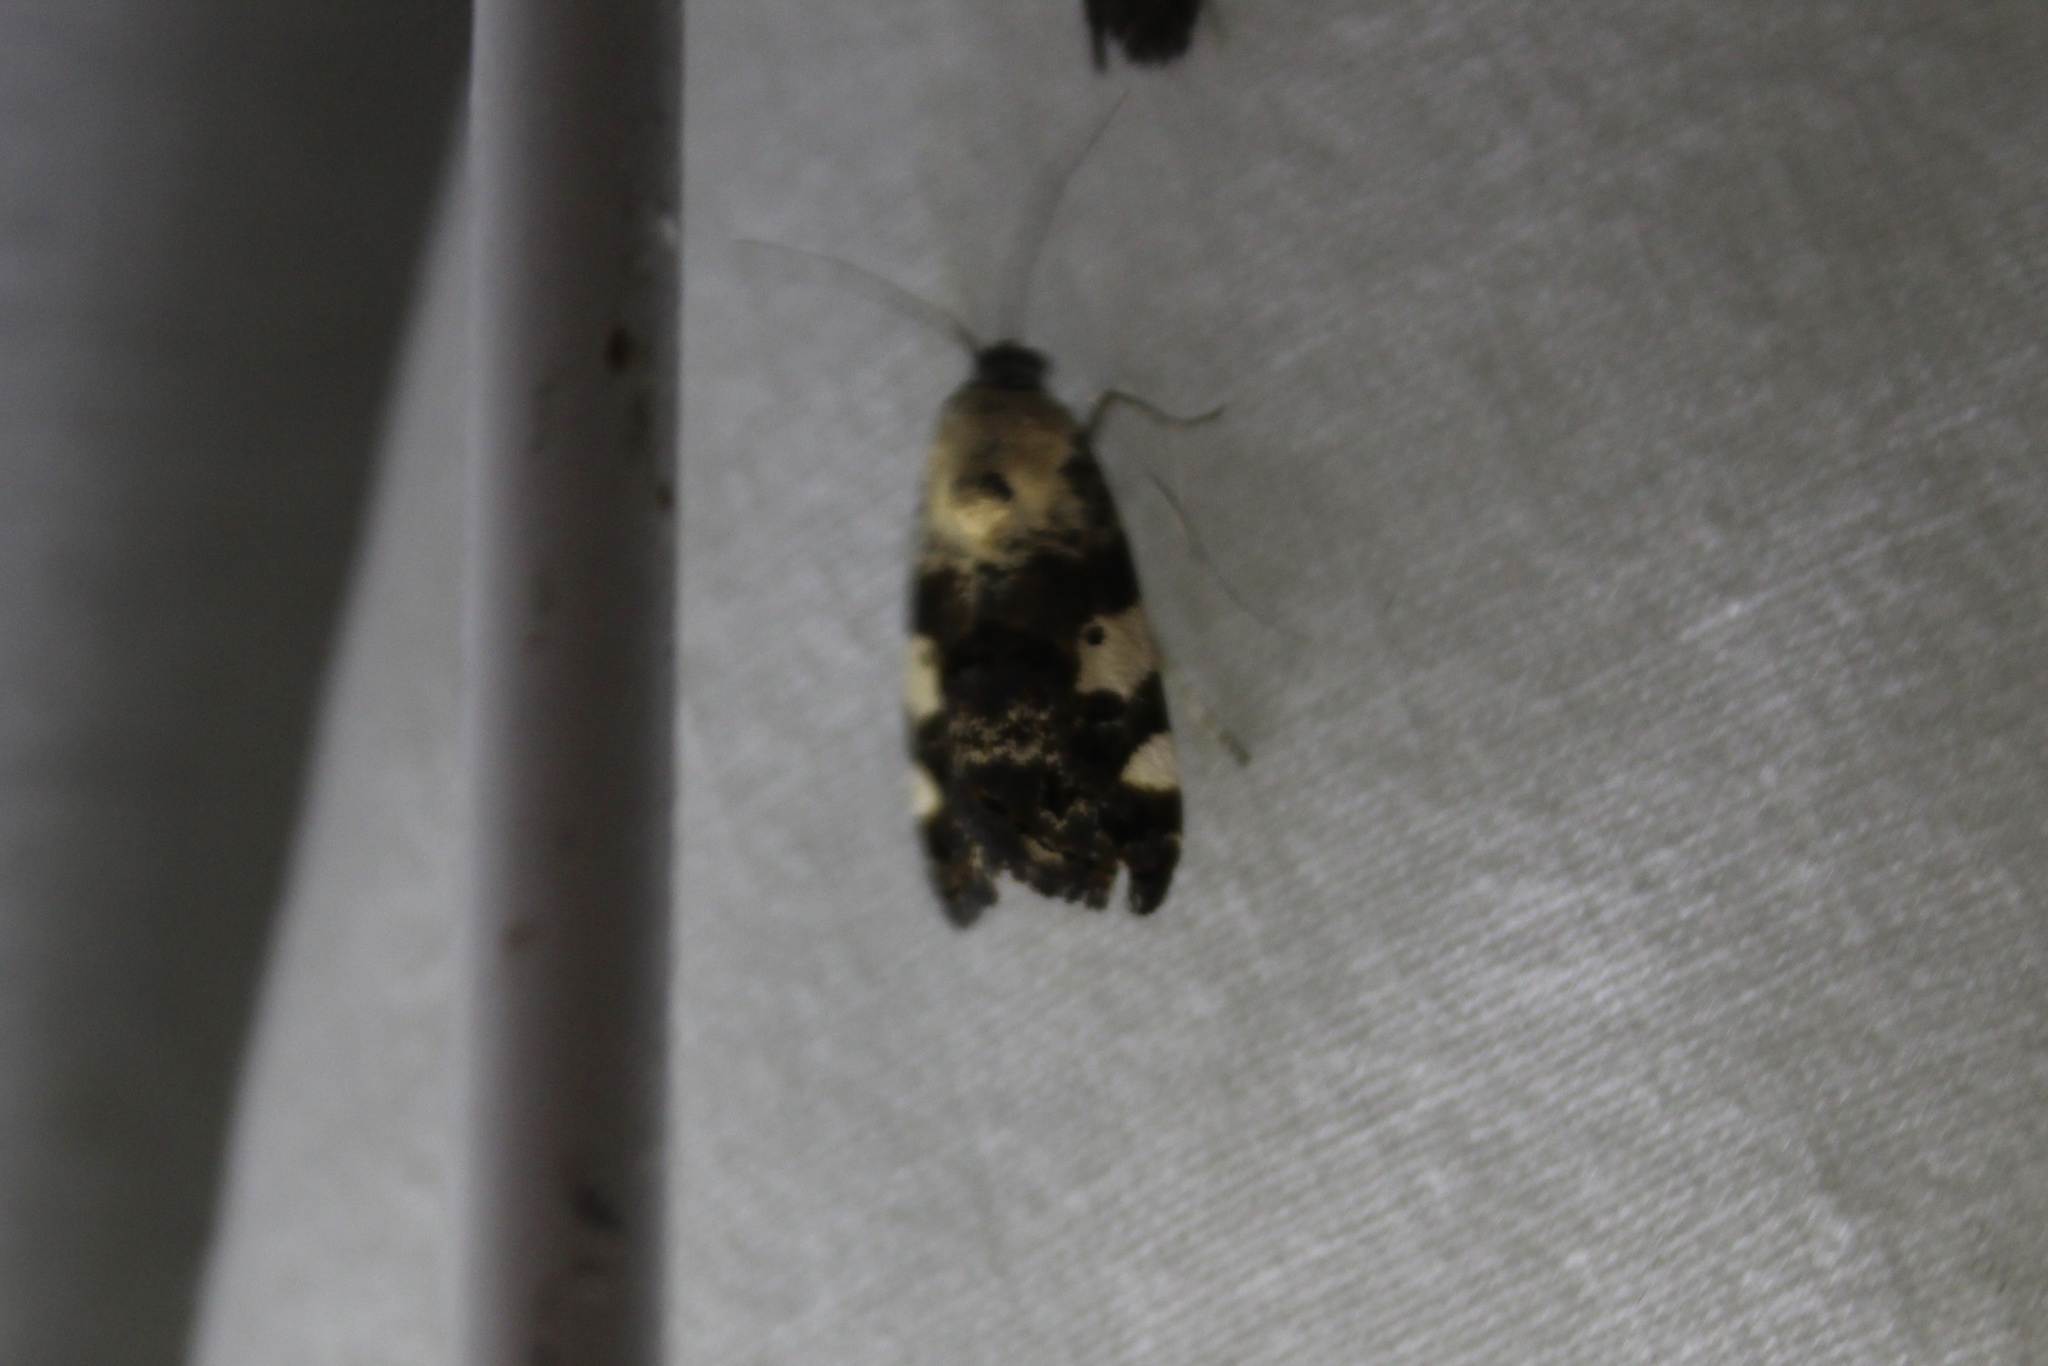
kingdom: Animalia
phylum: Arthropoda
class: Insecta
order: Lepidoptera
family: Noctuidae
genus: Acontia
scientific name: Acontia aprica
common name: Nun
